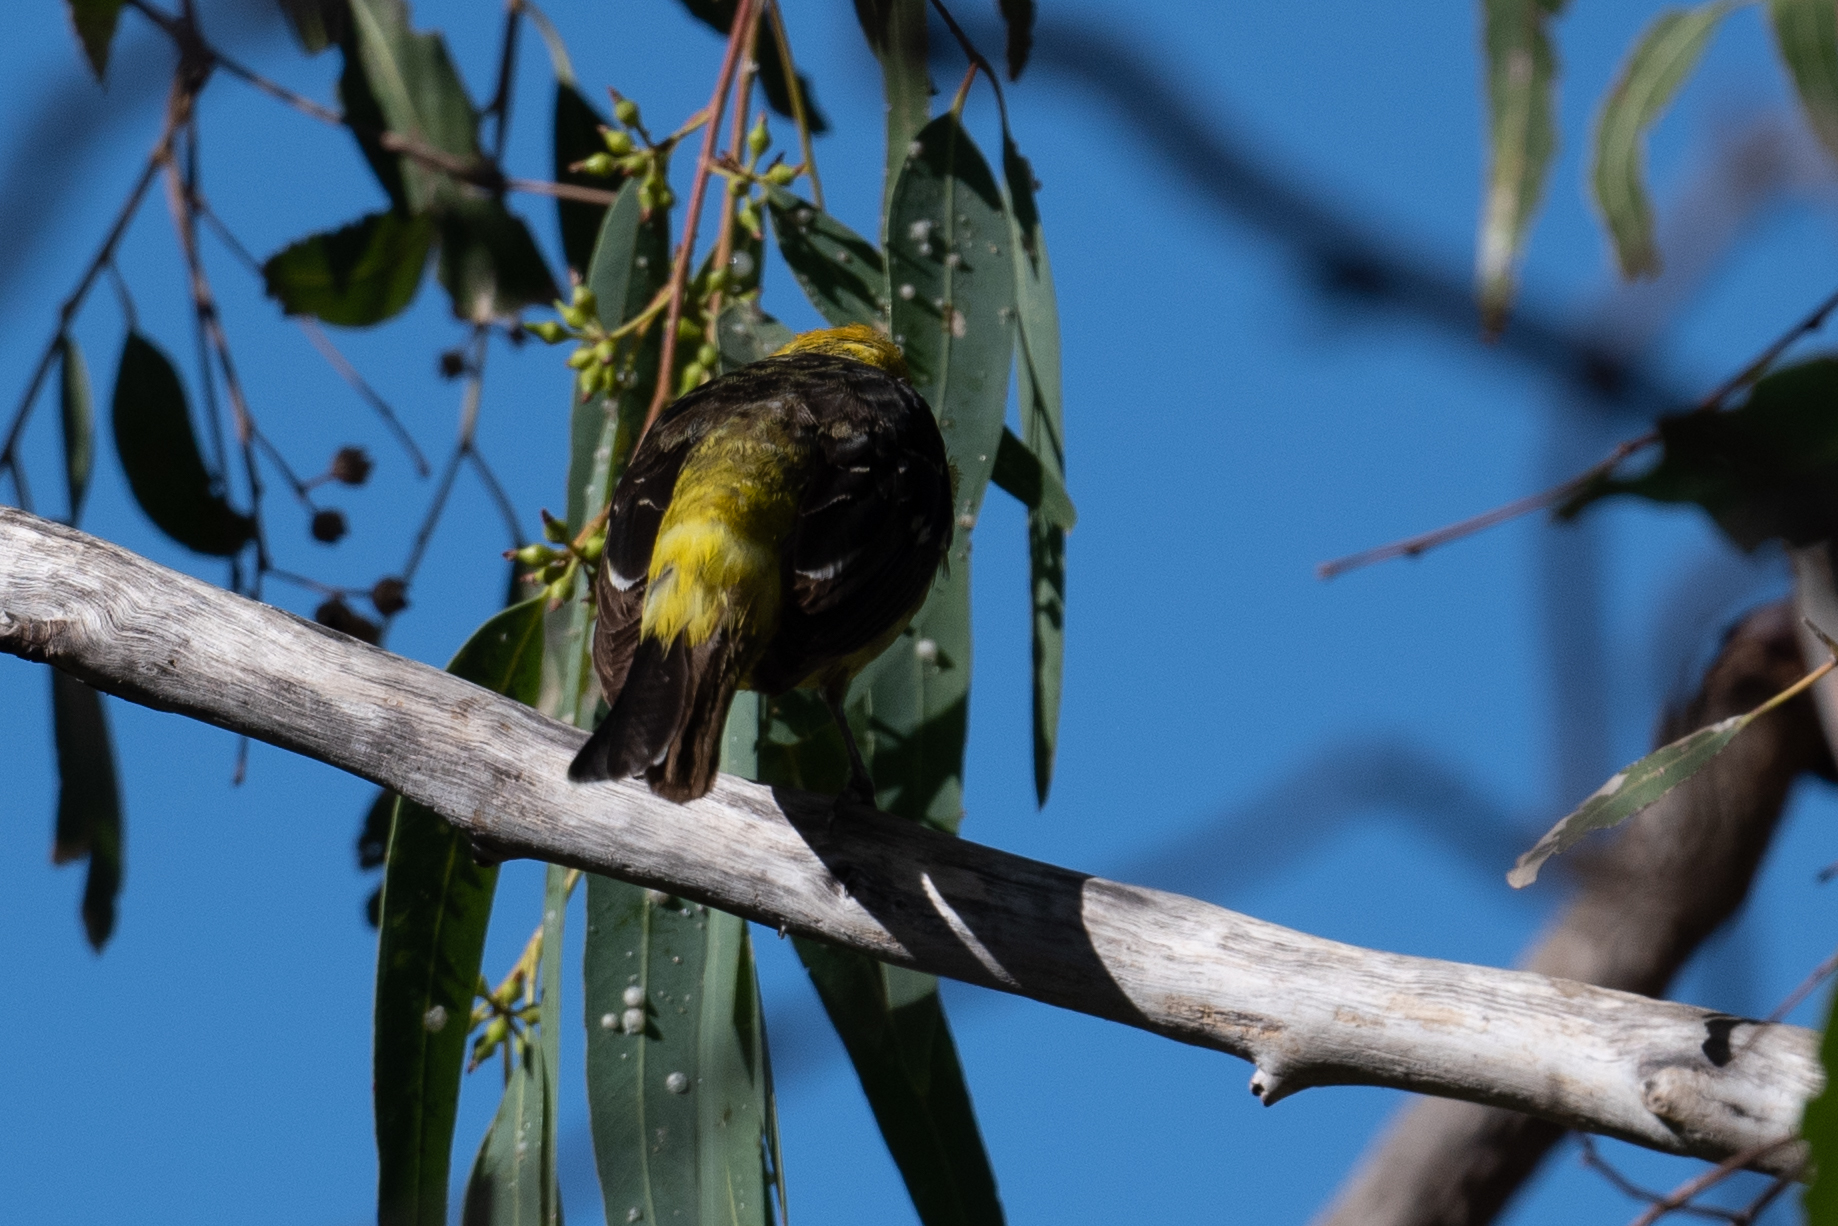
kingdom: Animalia
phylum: Chordata
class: Aves
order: Passeriformes
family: Cardinalidae
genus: Piranga
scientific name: Piranga ludoviciana
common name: Western tanager
